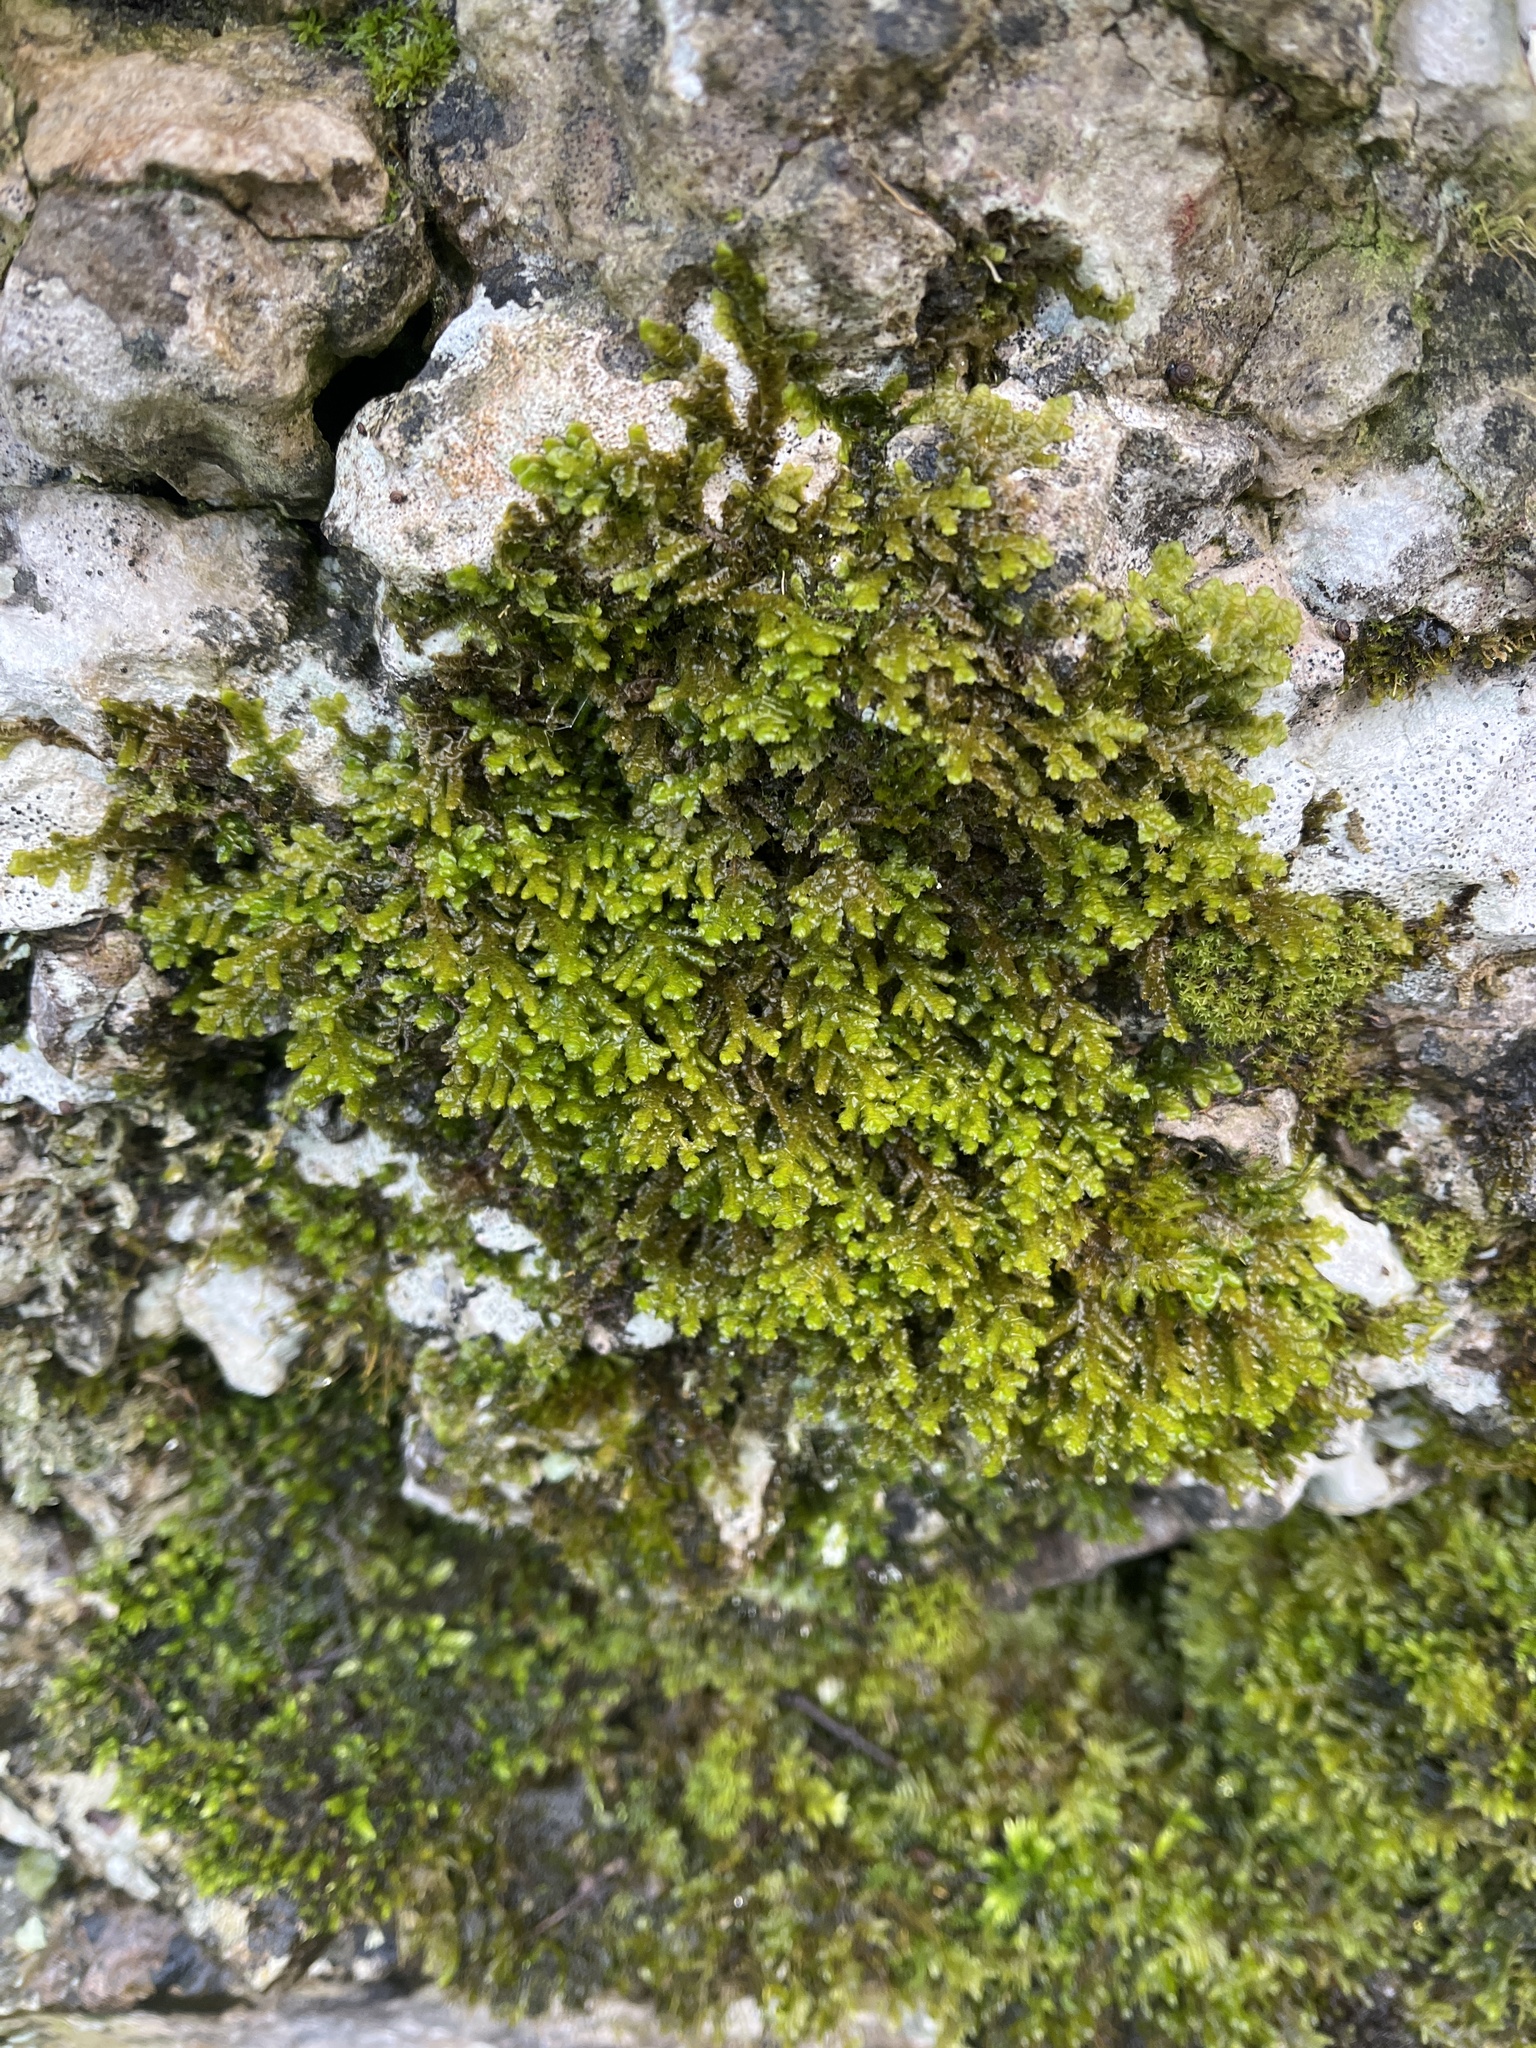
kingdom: Plantae
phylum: Marchantiophyta
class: Jungermanniopsida
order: Porellales
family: Porellaceae
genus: Porella
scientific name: Porella platyphylla
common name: Wall scalewort
